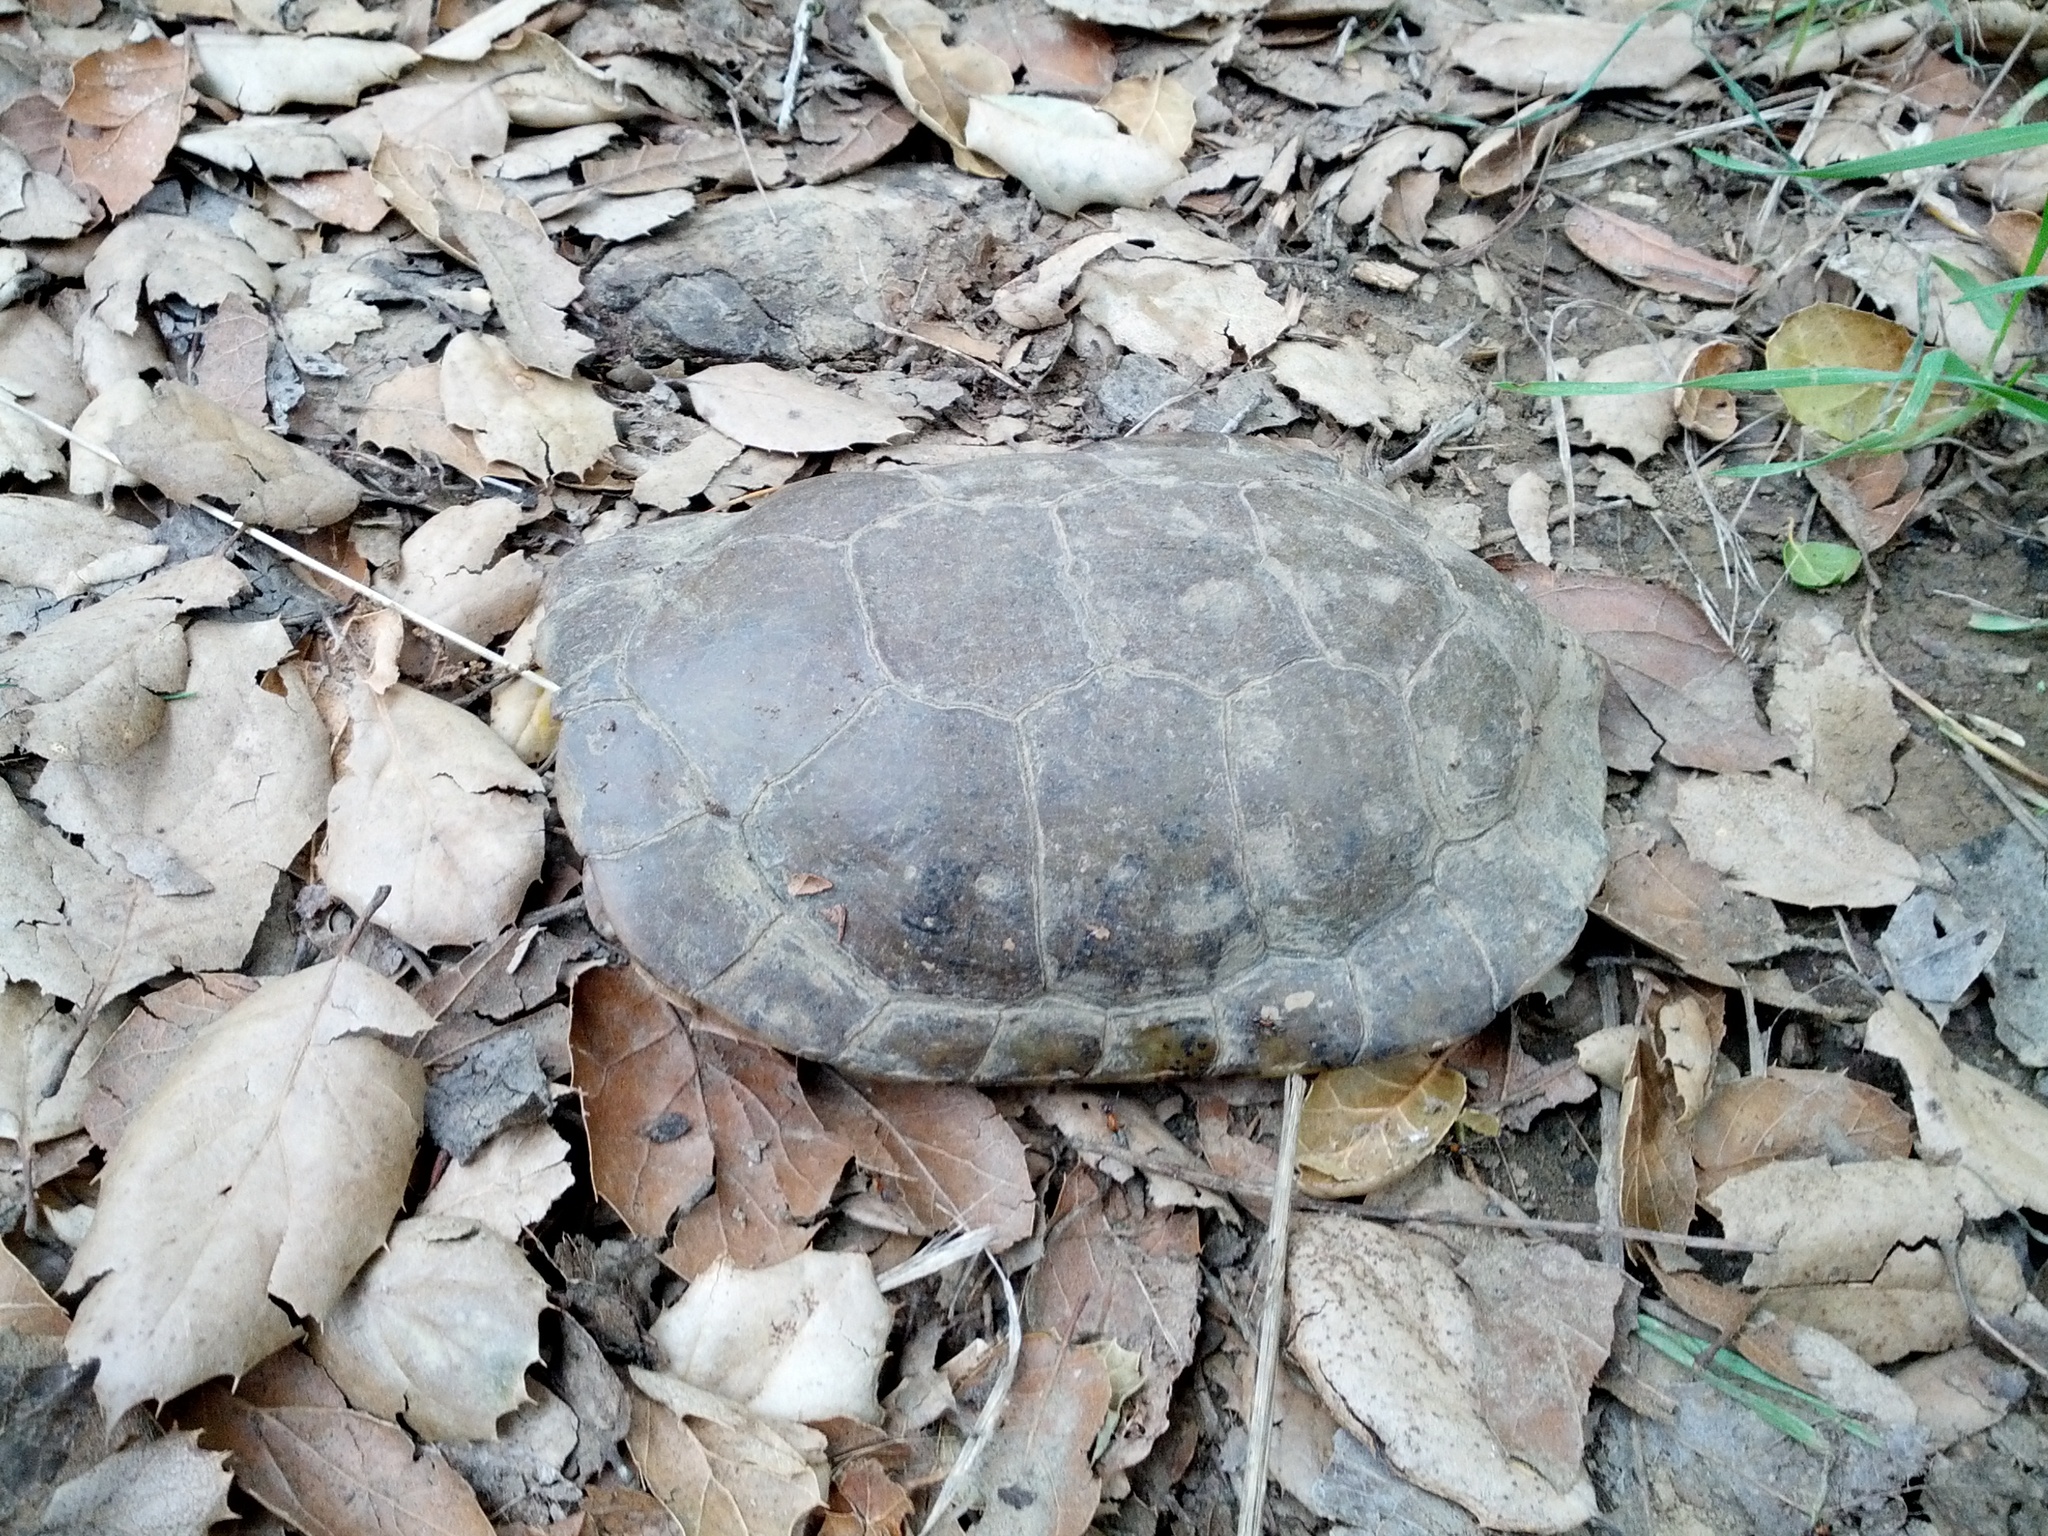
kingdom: Animalia
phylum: Chordata
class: Testudines
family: Emydidae
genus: Actinemys
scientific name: Actinemys marmorata
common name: Western pond turtle
